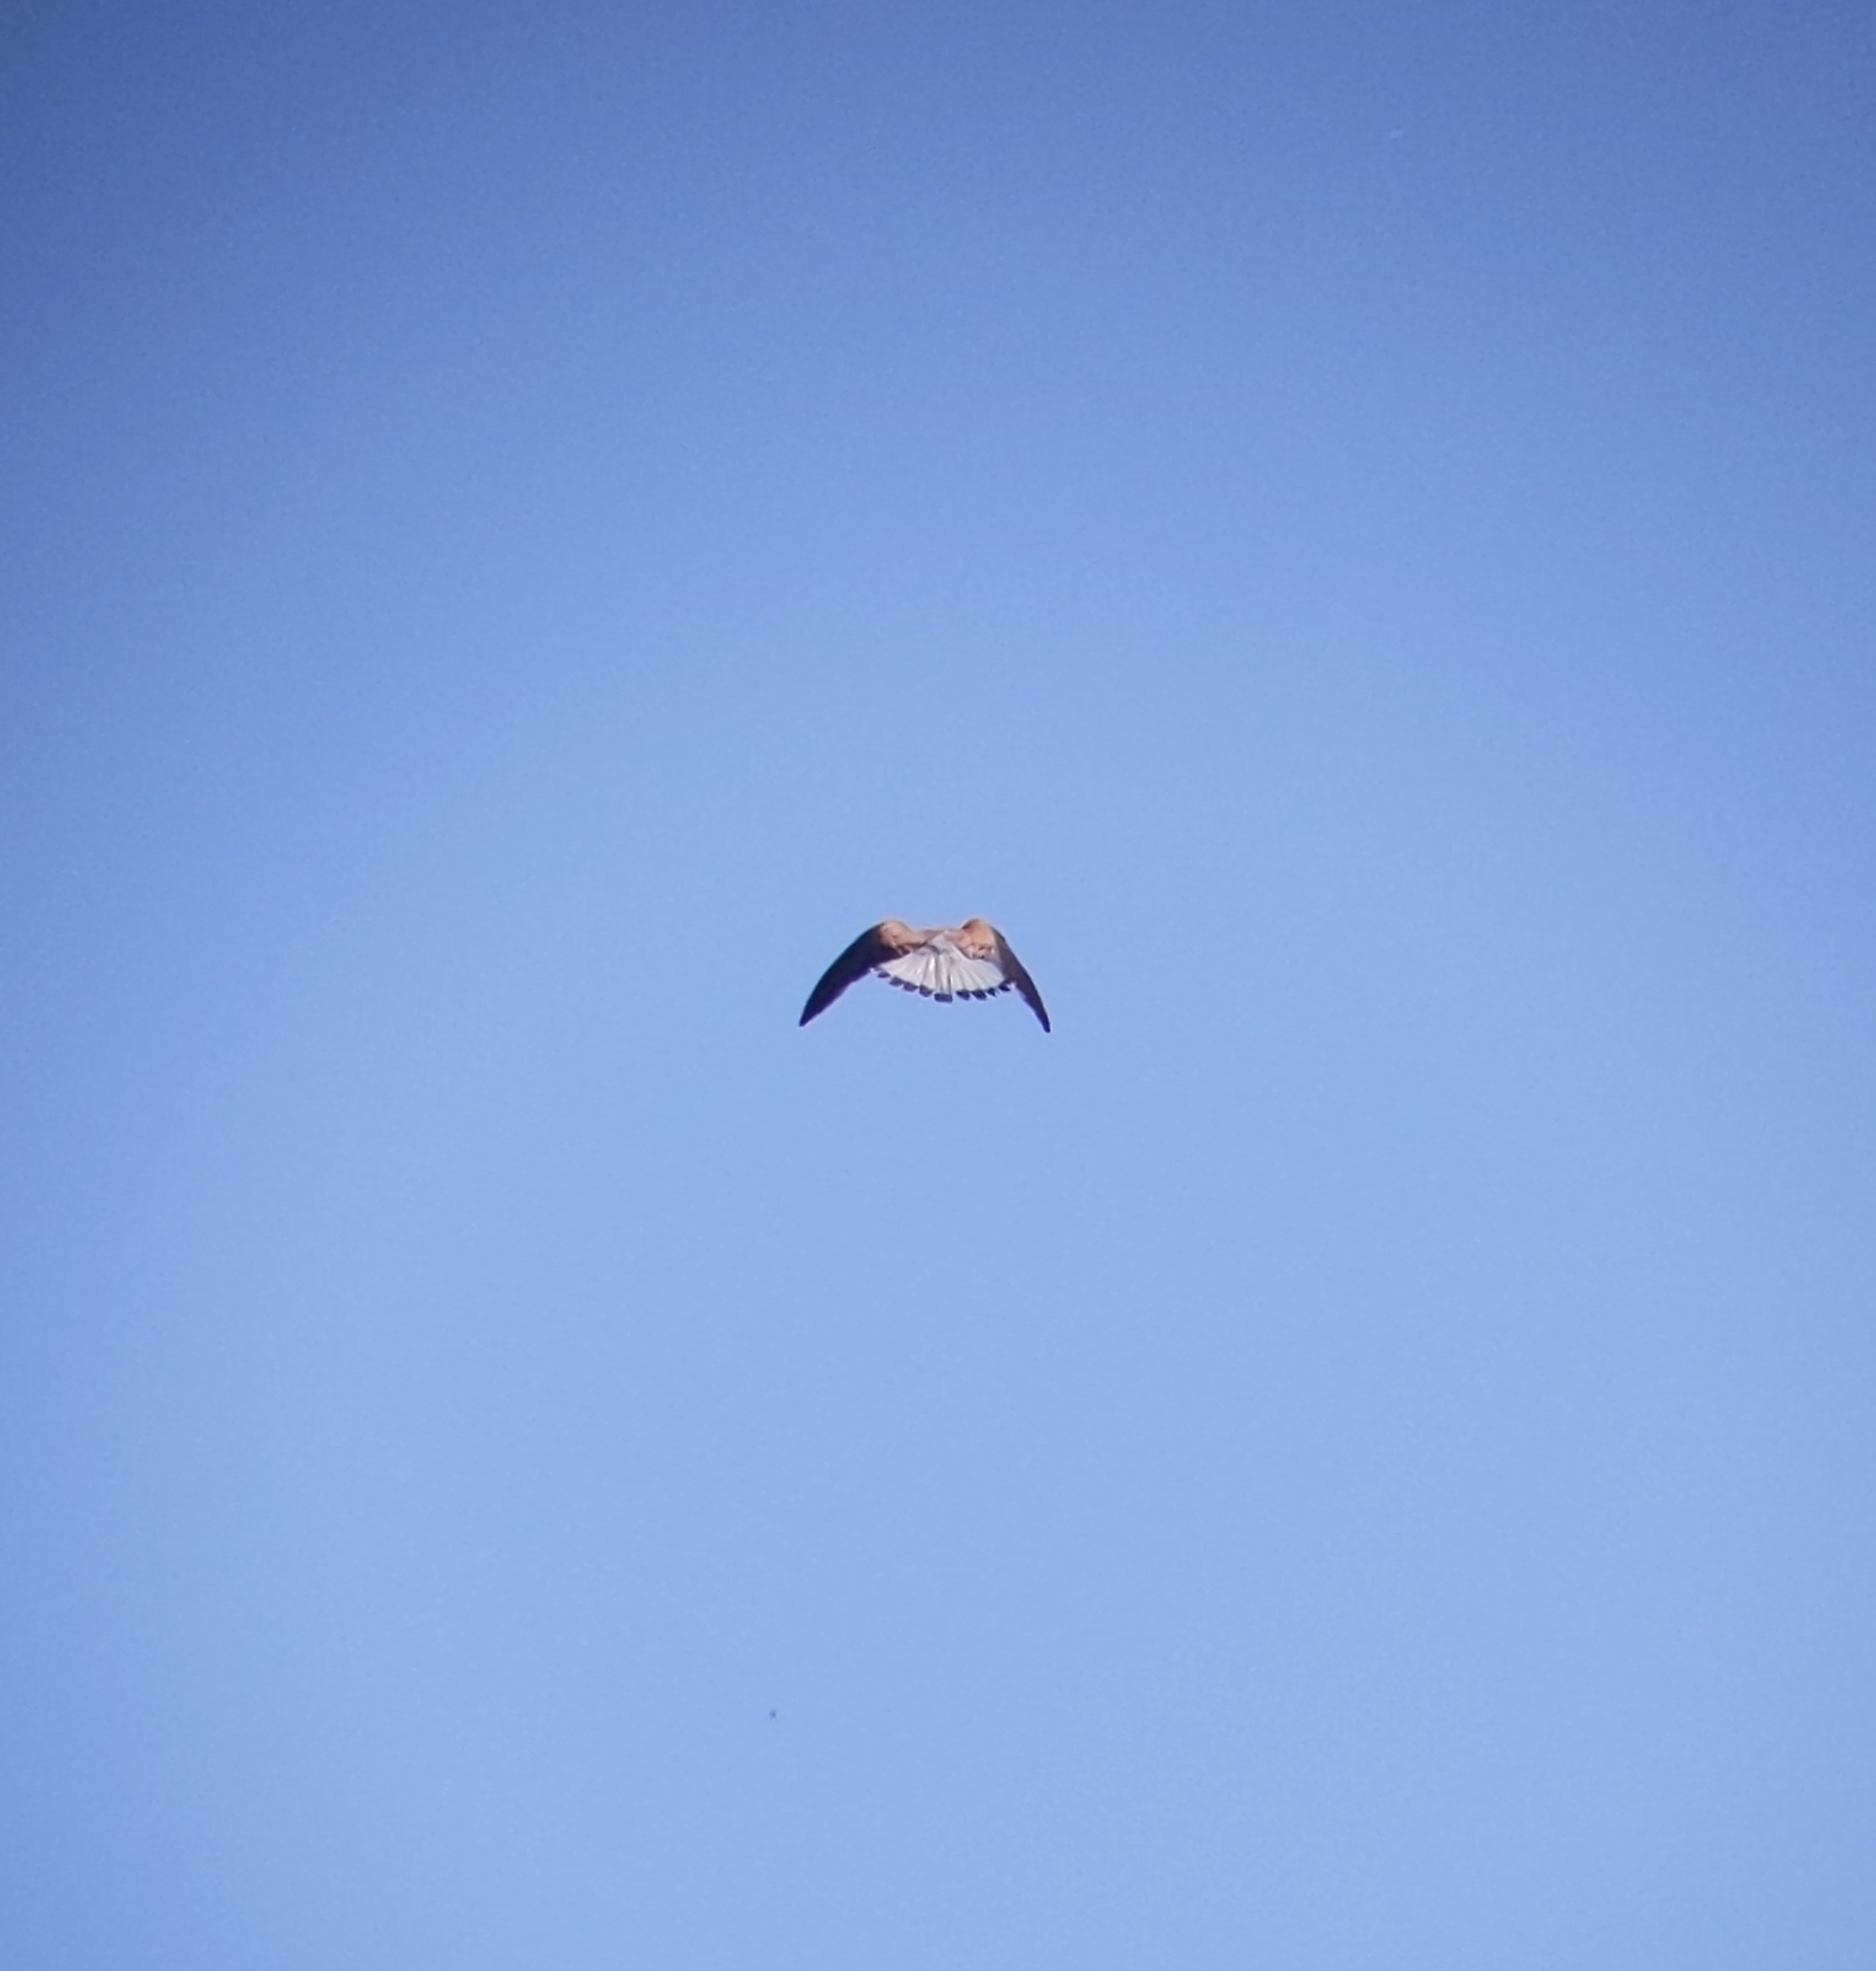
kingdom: Animalia
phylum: Chordata
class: Aves
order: Falconiformes
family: Falconidae
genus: Falco
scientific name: Falco tinnunculus
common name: Common kestrel
